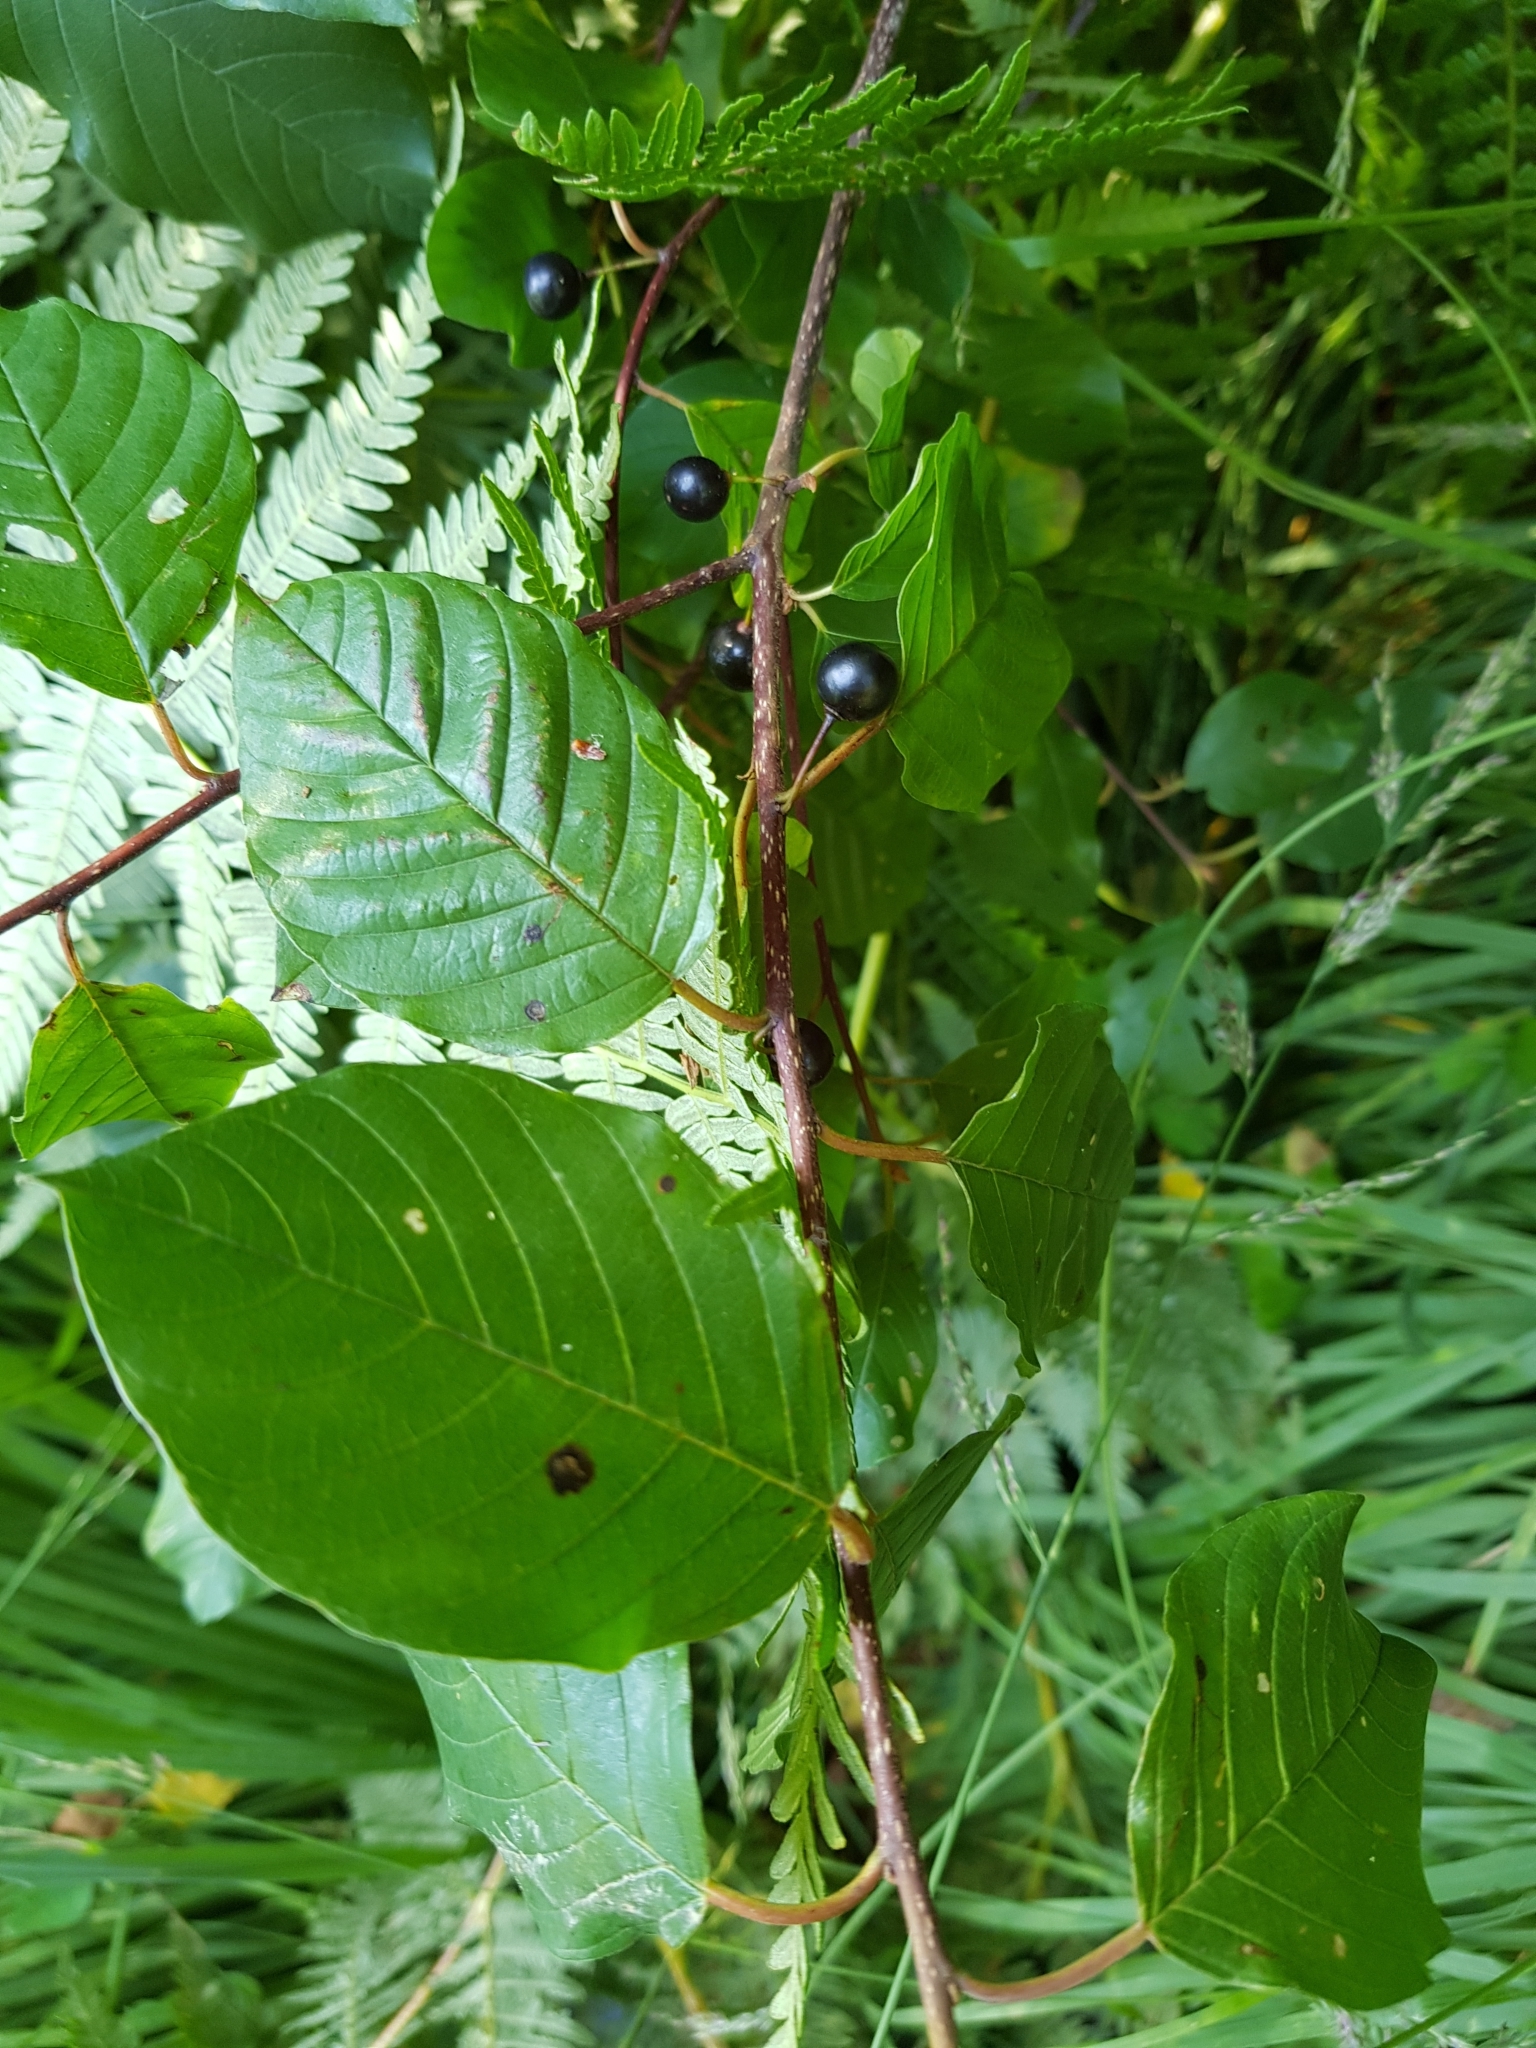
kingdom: Plantae
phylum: Tracheophyta
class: Magnoliopsida
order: Rosales
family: Rhamnaceae
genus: Frangula
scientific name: Frangula alnus
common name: Alder buckthorn
